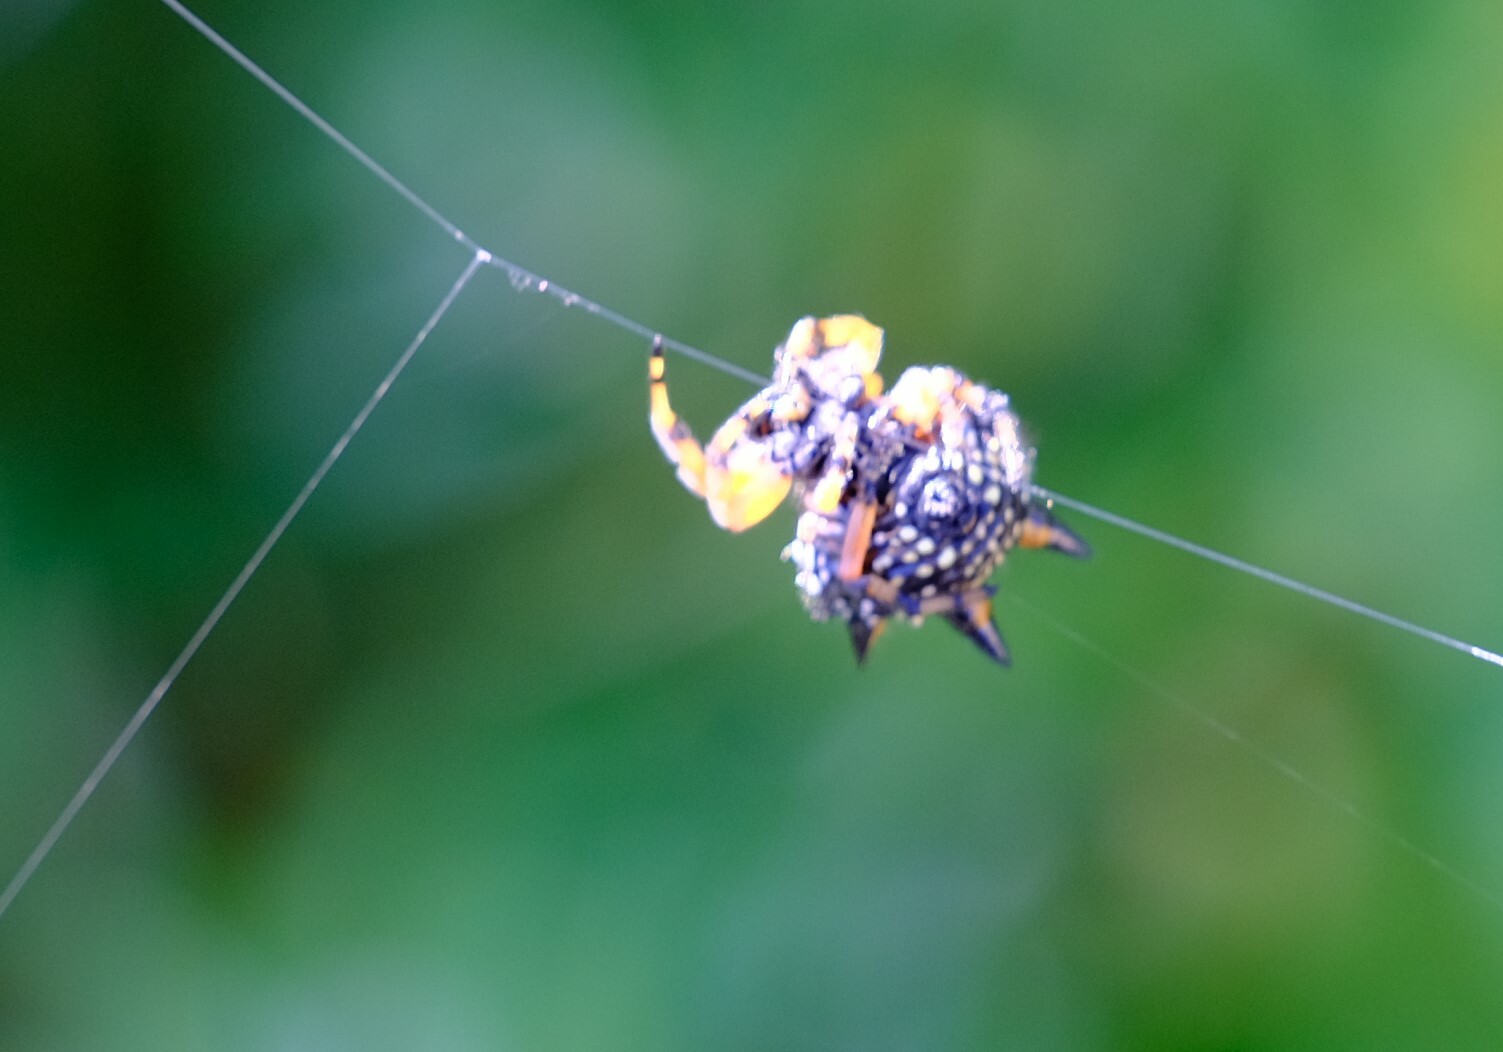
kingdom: Animalia
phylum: Arthropoda
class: Arachnida
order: Araneae
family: Araneidae
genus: Austracantha
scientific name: Austracantha minax
